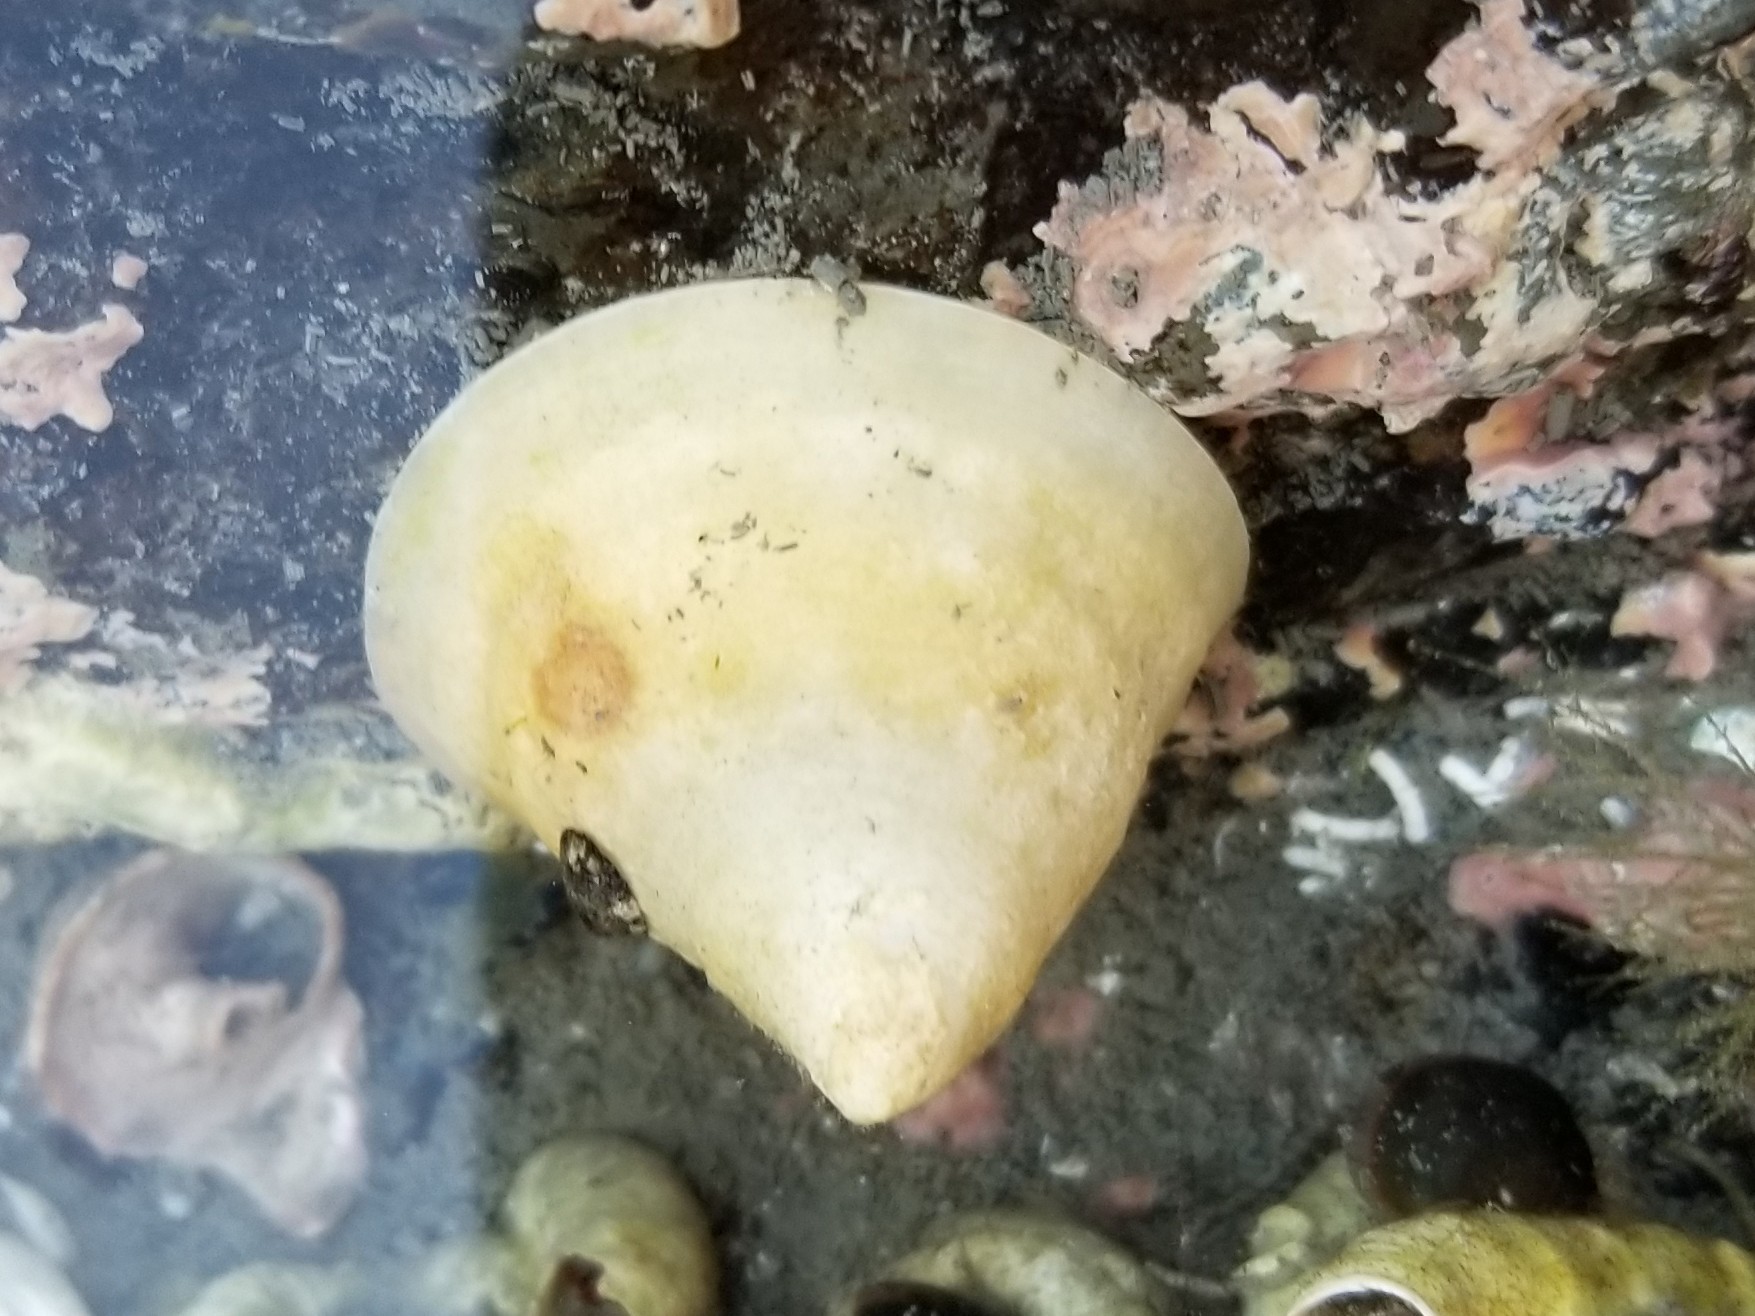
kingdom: Animalia
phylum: Mollusca
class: Gastropoda
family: Acmaeidae
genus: Acmaea
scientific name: Acmaea mitra
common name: Pacific white cap limpet
